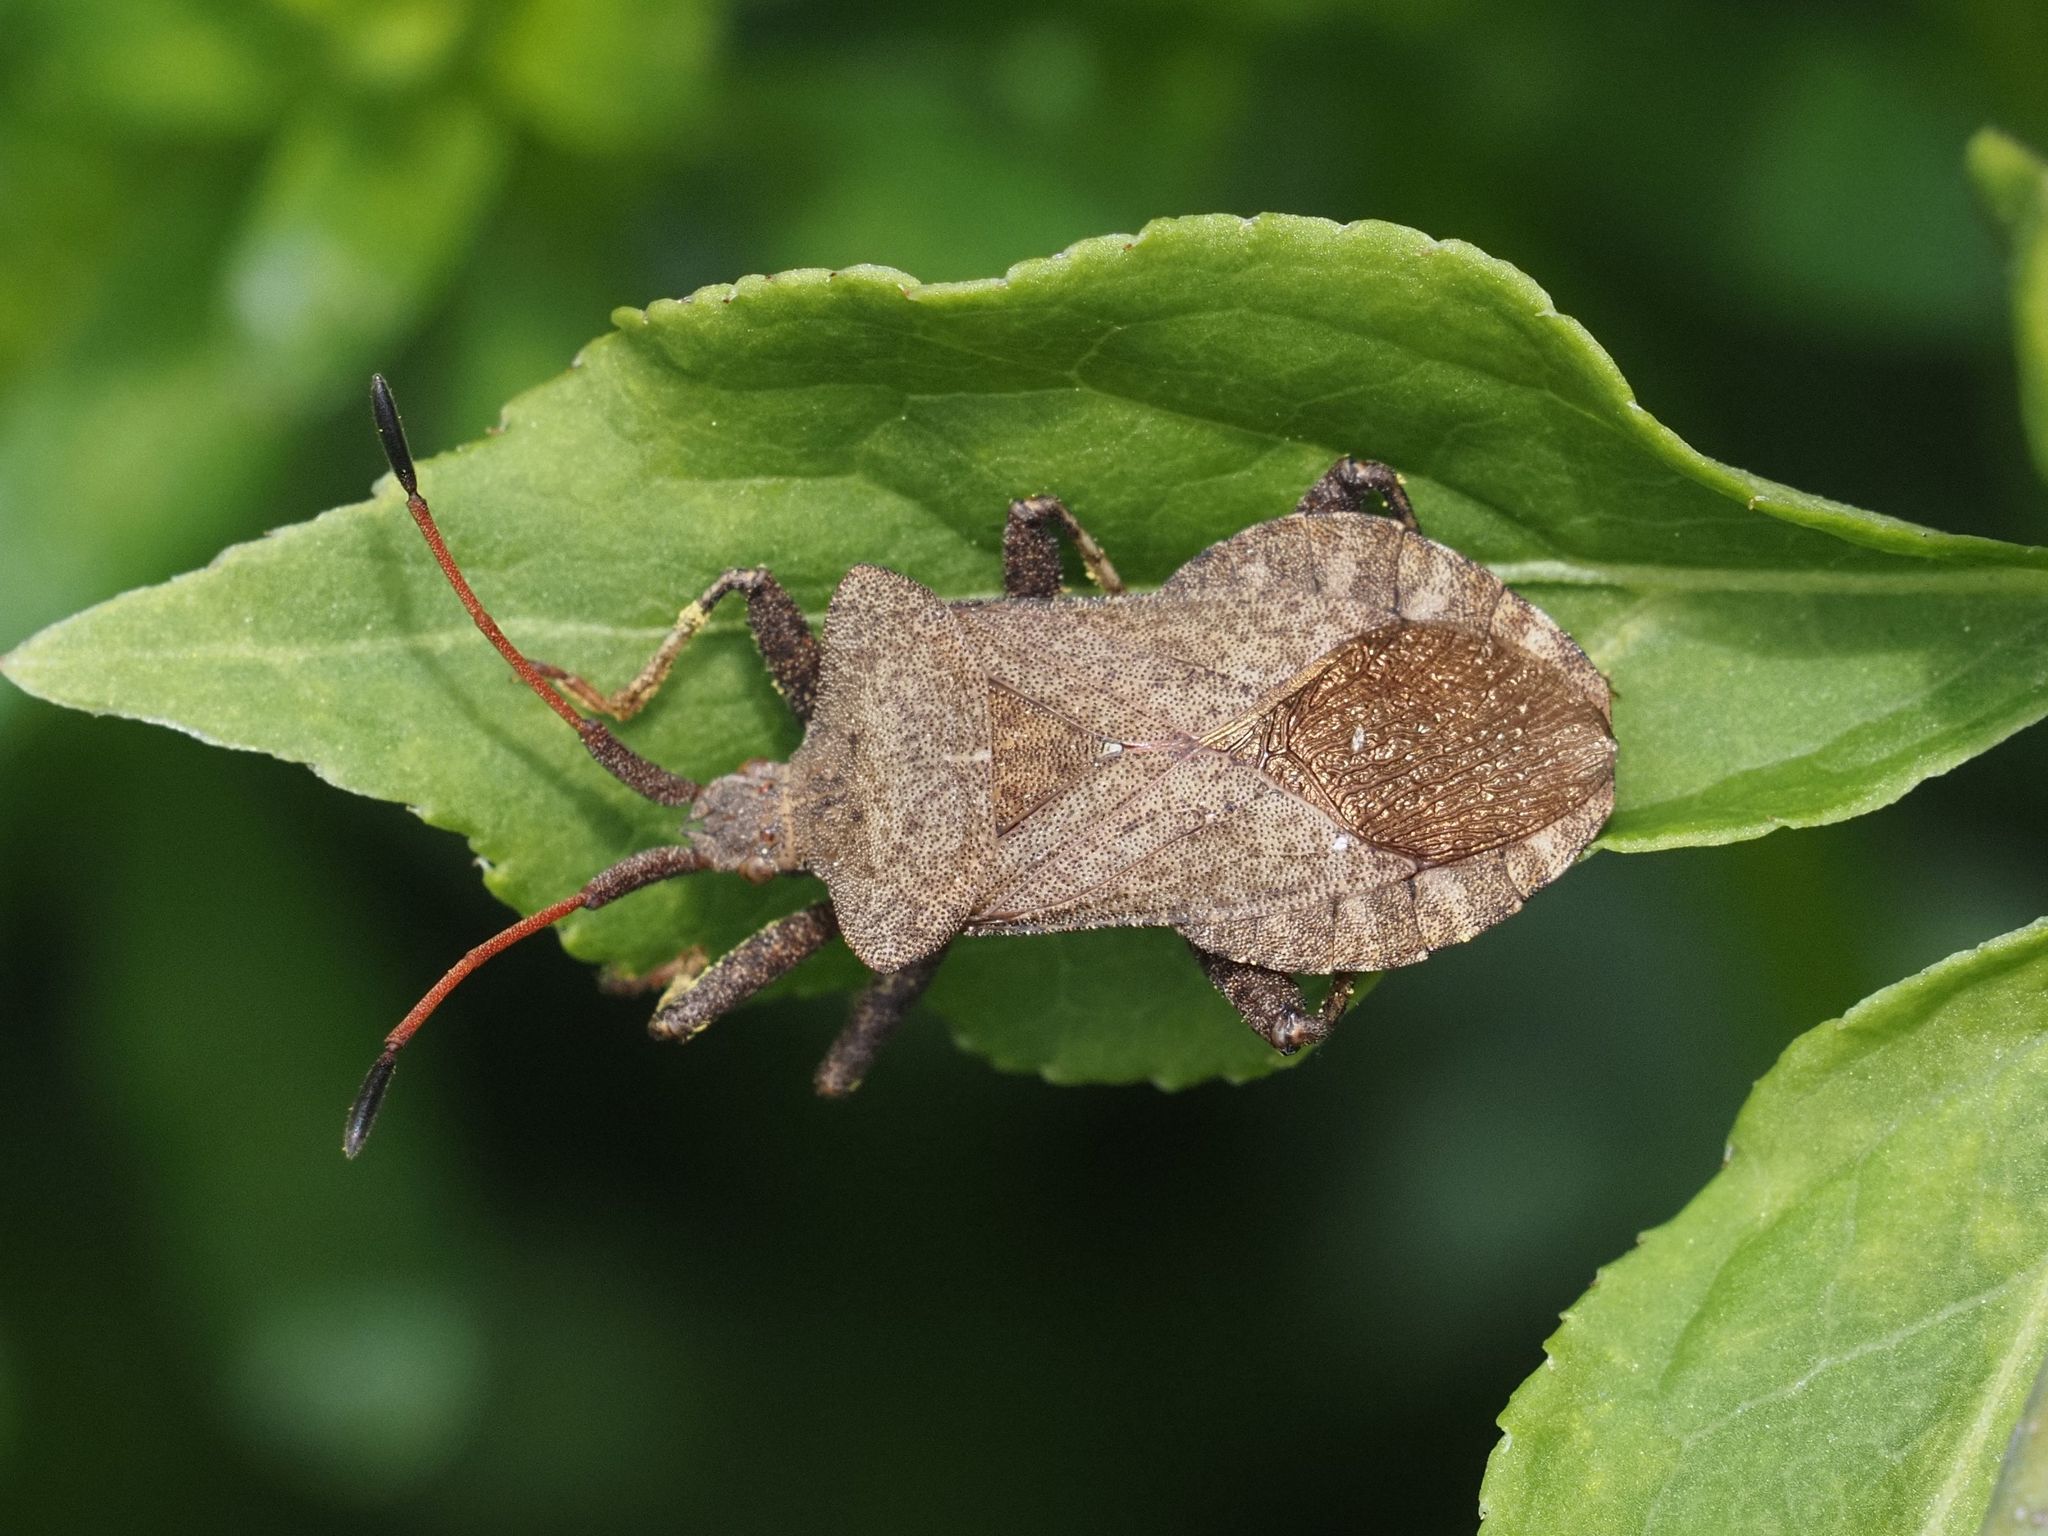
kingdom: Animalia
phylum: Arthropoda
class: Insecta
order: Hemiptera
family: Coreidae
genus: Coreus
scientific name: Coreus marginatus
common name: Dock bug
